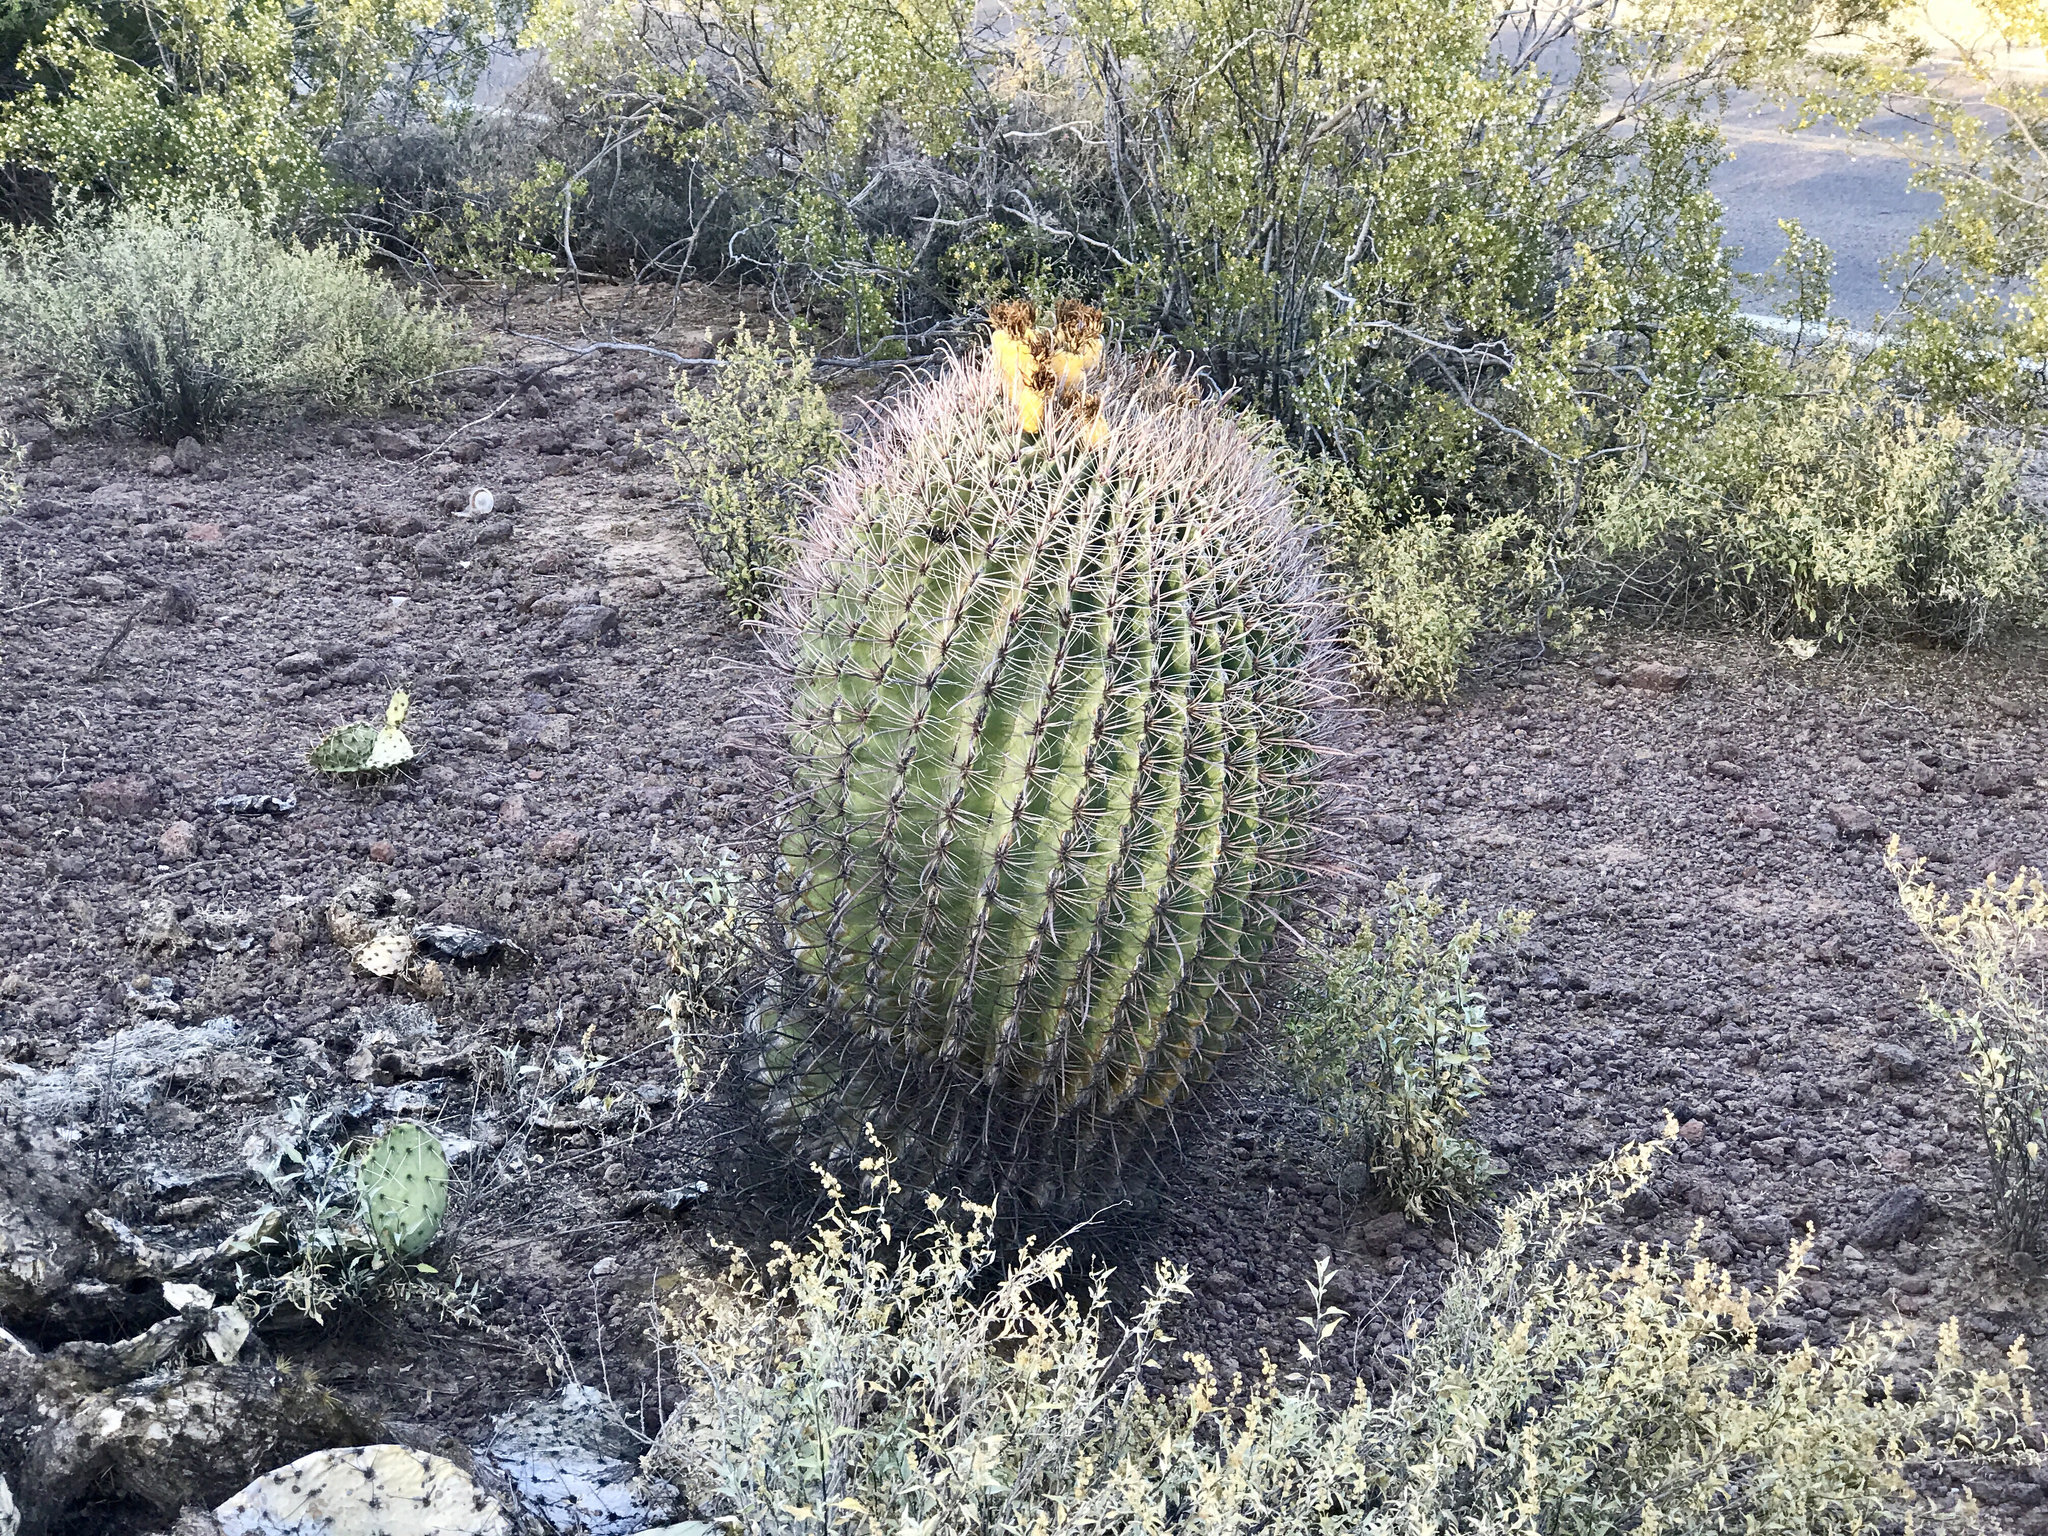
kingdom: Plantae
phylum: Tracheophyta
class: Magnoliopsida
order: Caryophyllales
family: Cactaceae
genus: Ferocactus
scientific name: Ferocactus wislizeni
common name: Candy barrel cactus
